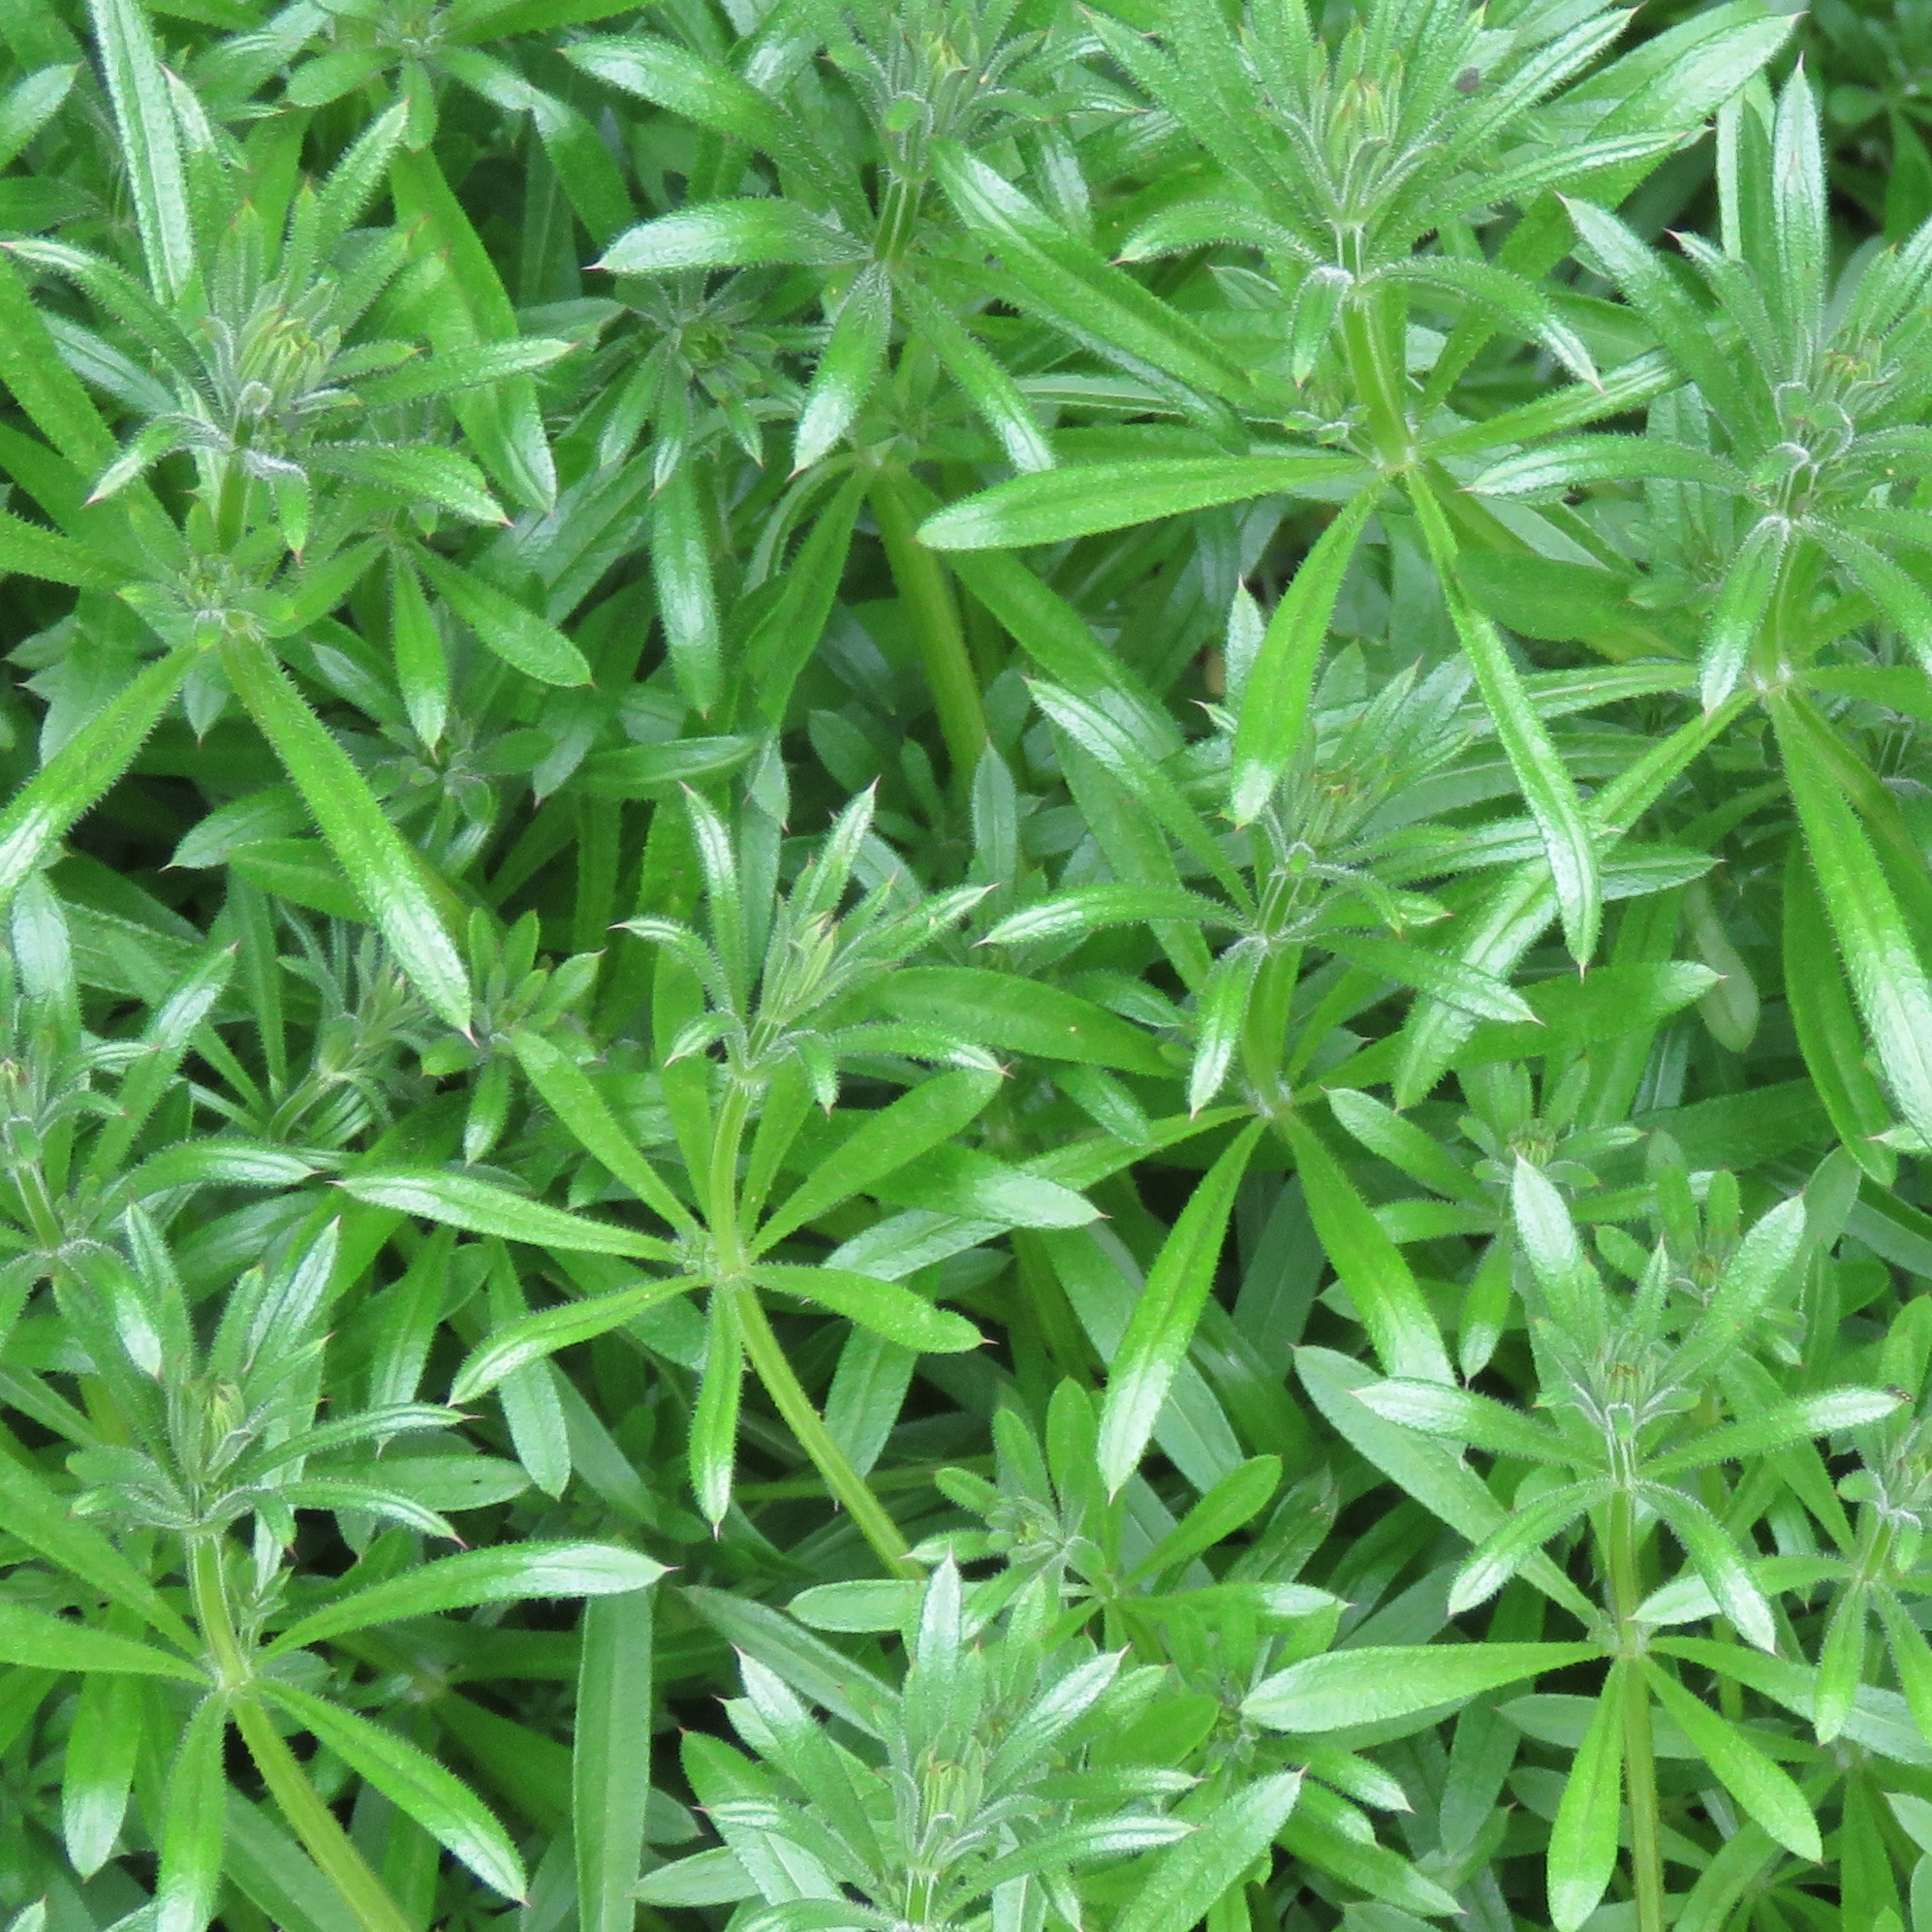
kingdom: Plantae
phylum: Tracheophyta
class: Magnoliopsida
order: Gentianales
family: Rubiaceae
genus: Galium
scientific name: Galium aparine
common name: Cleavers
